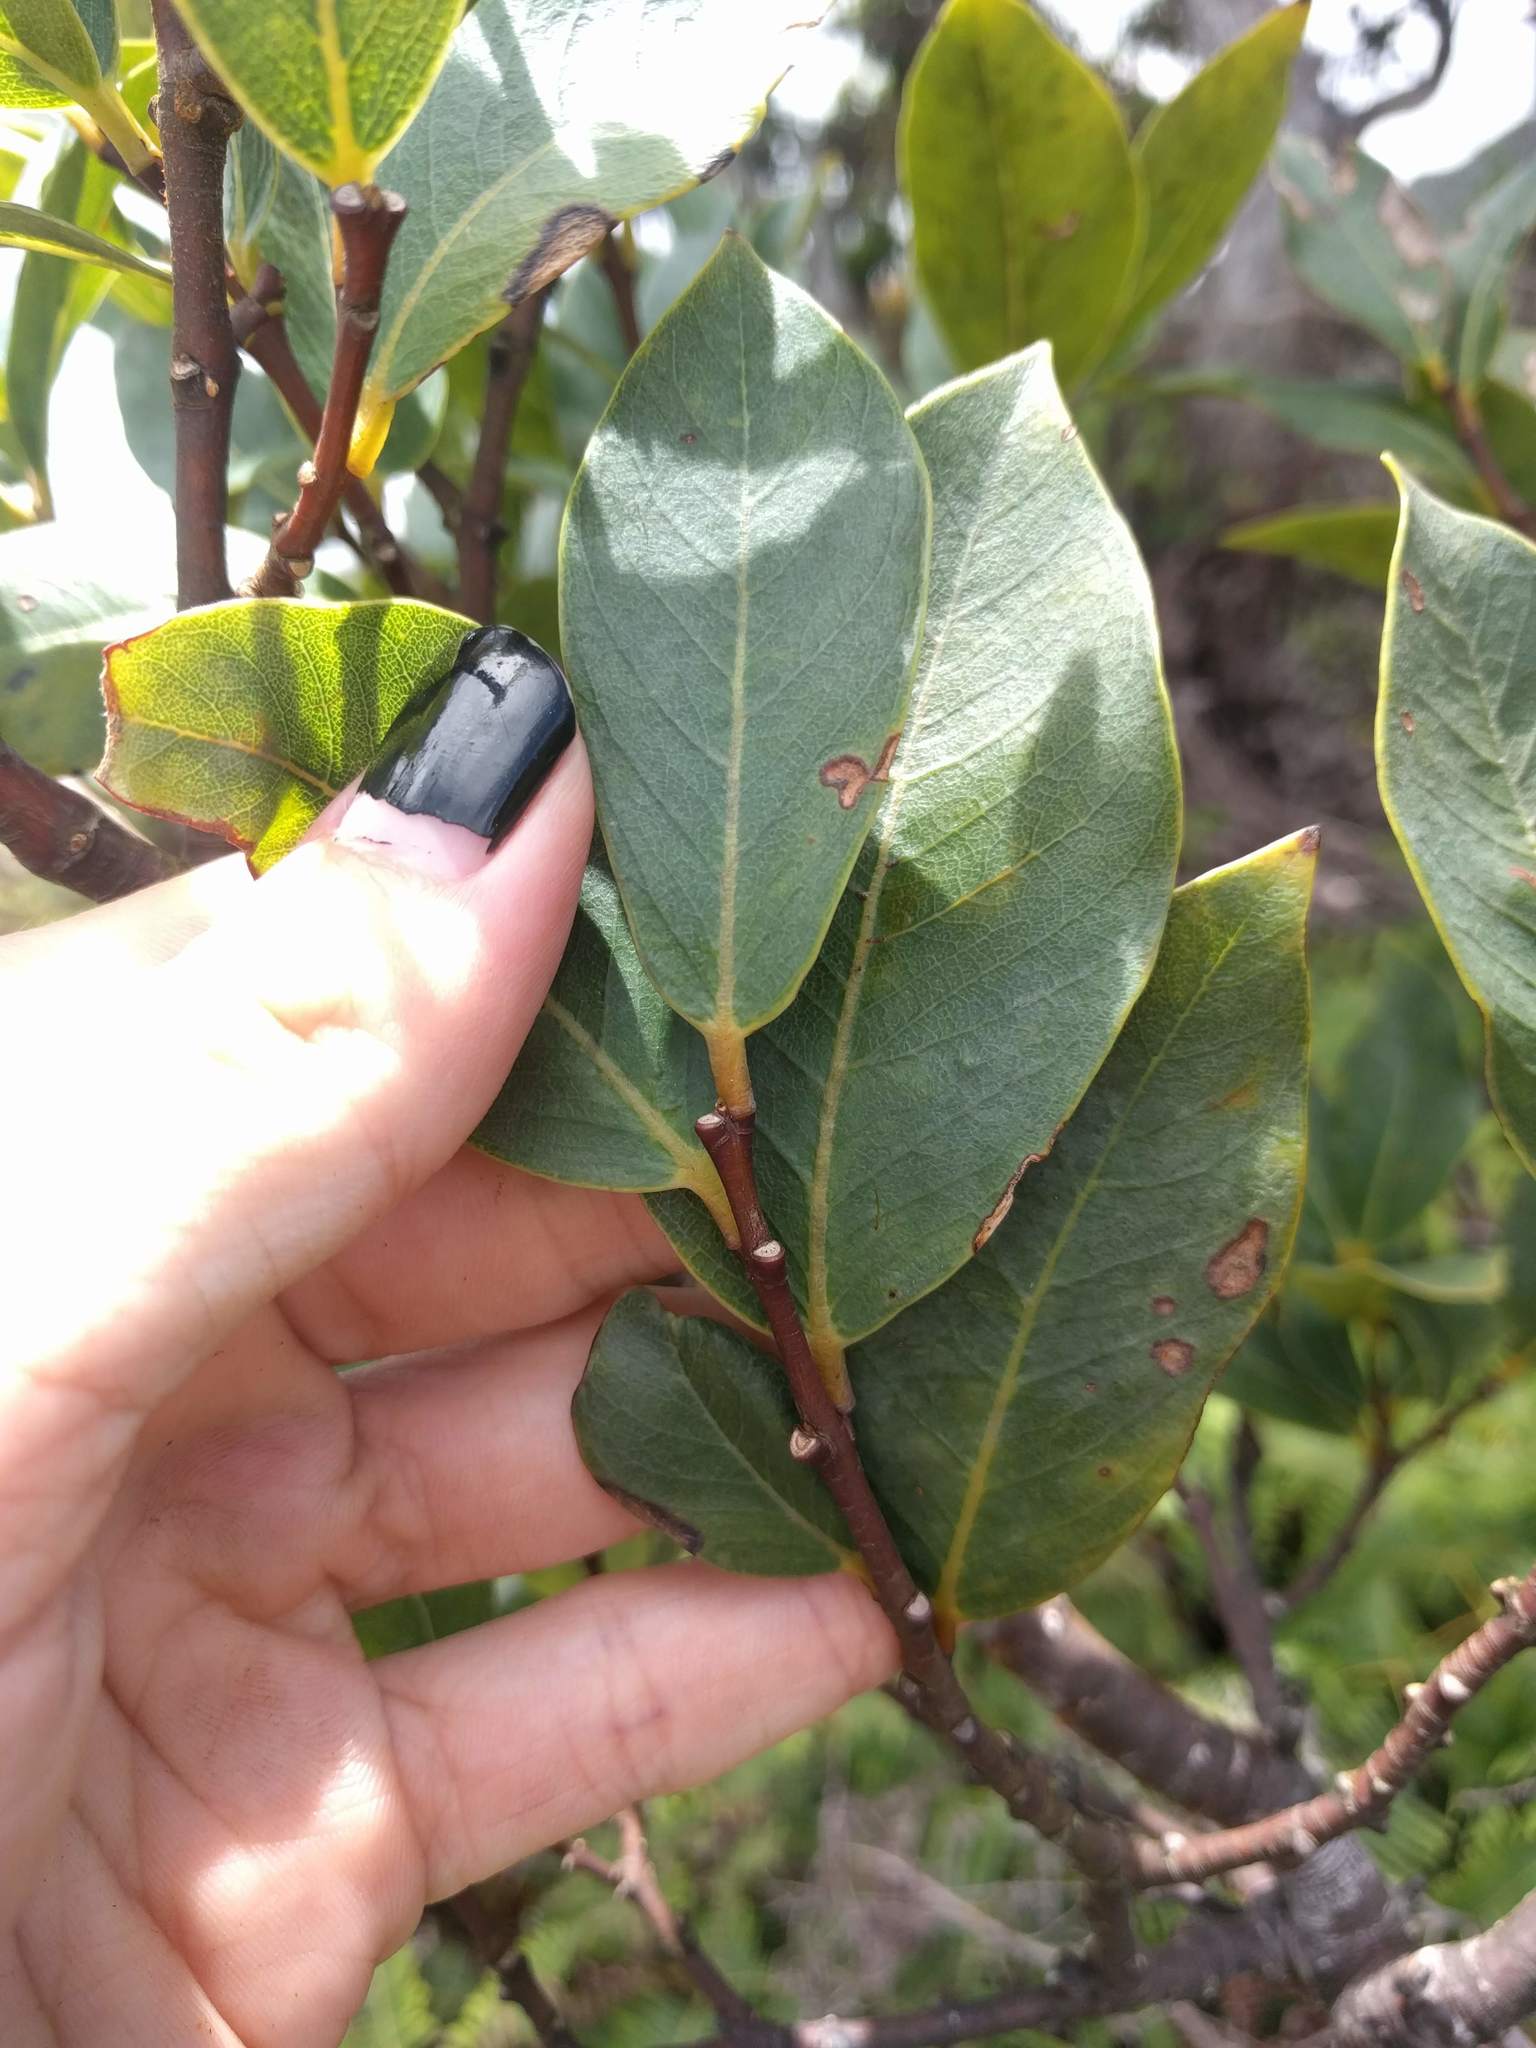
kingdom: Plantae
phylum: Tracheophyta
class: Magnoliopsida
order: Malvales
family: Thymelaeaceae
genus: Wikstroemia
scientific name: Wikstroemia oahuensis
